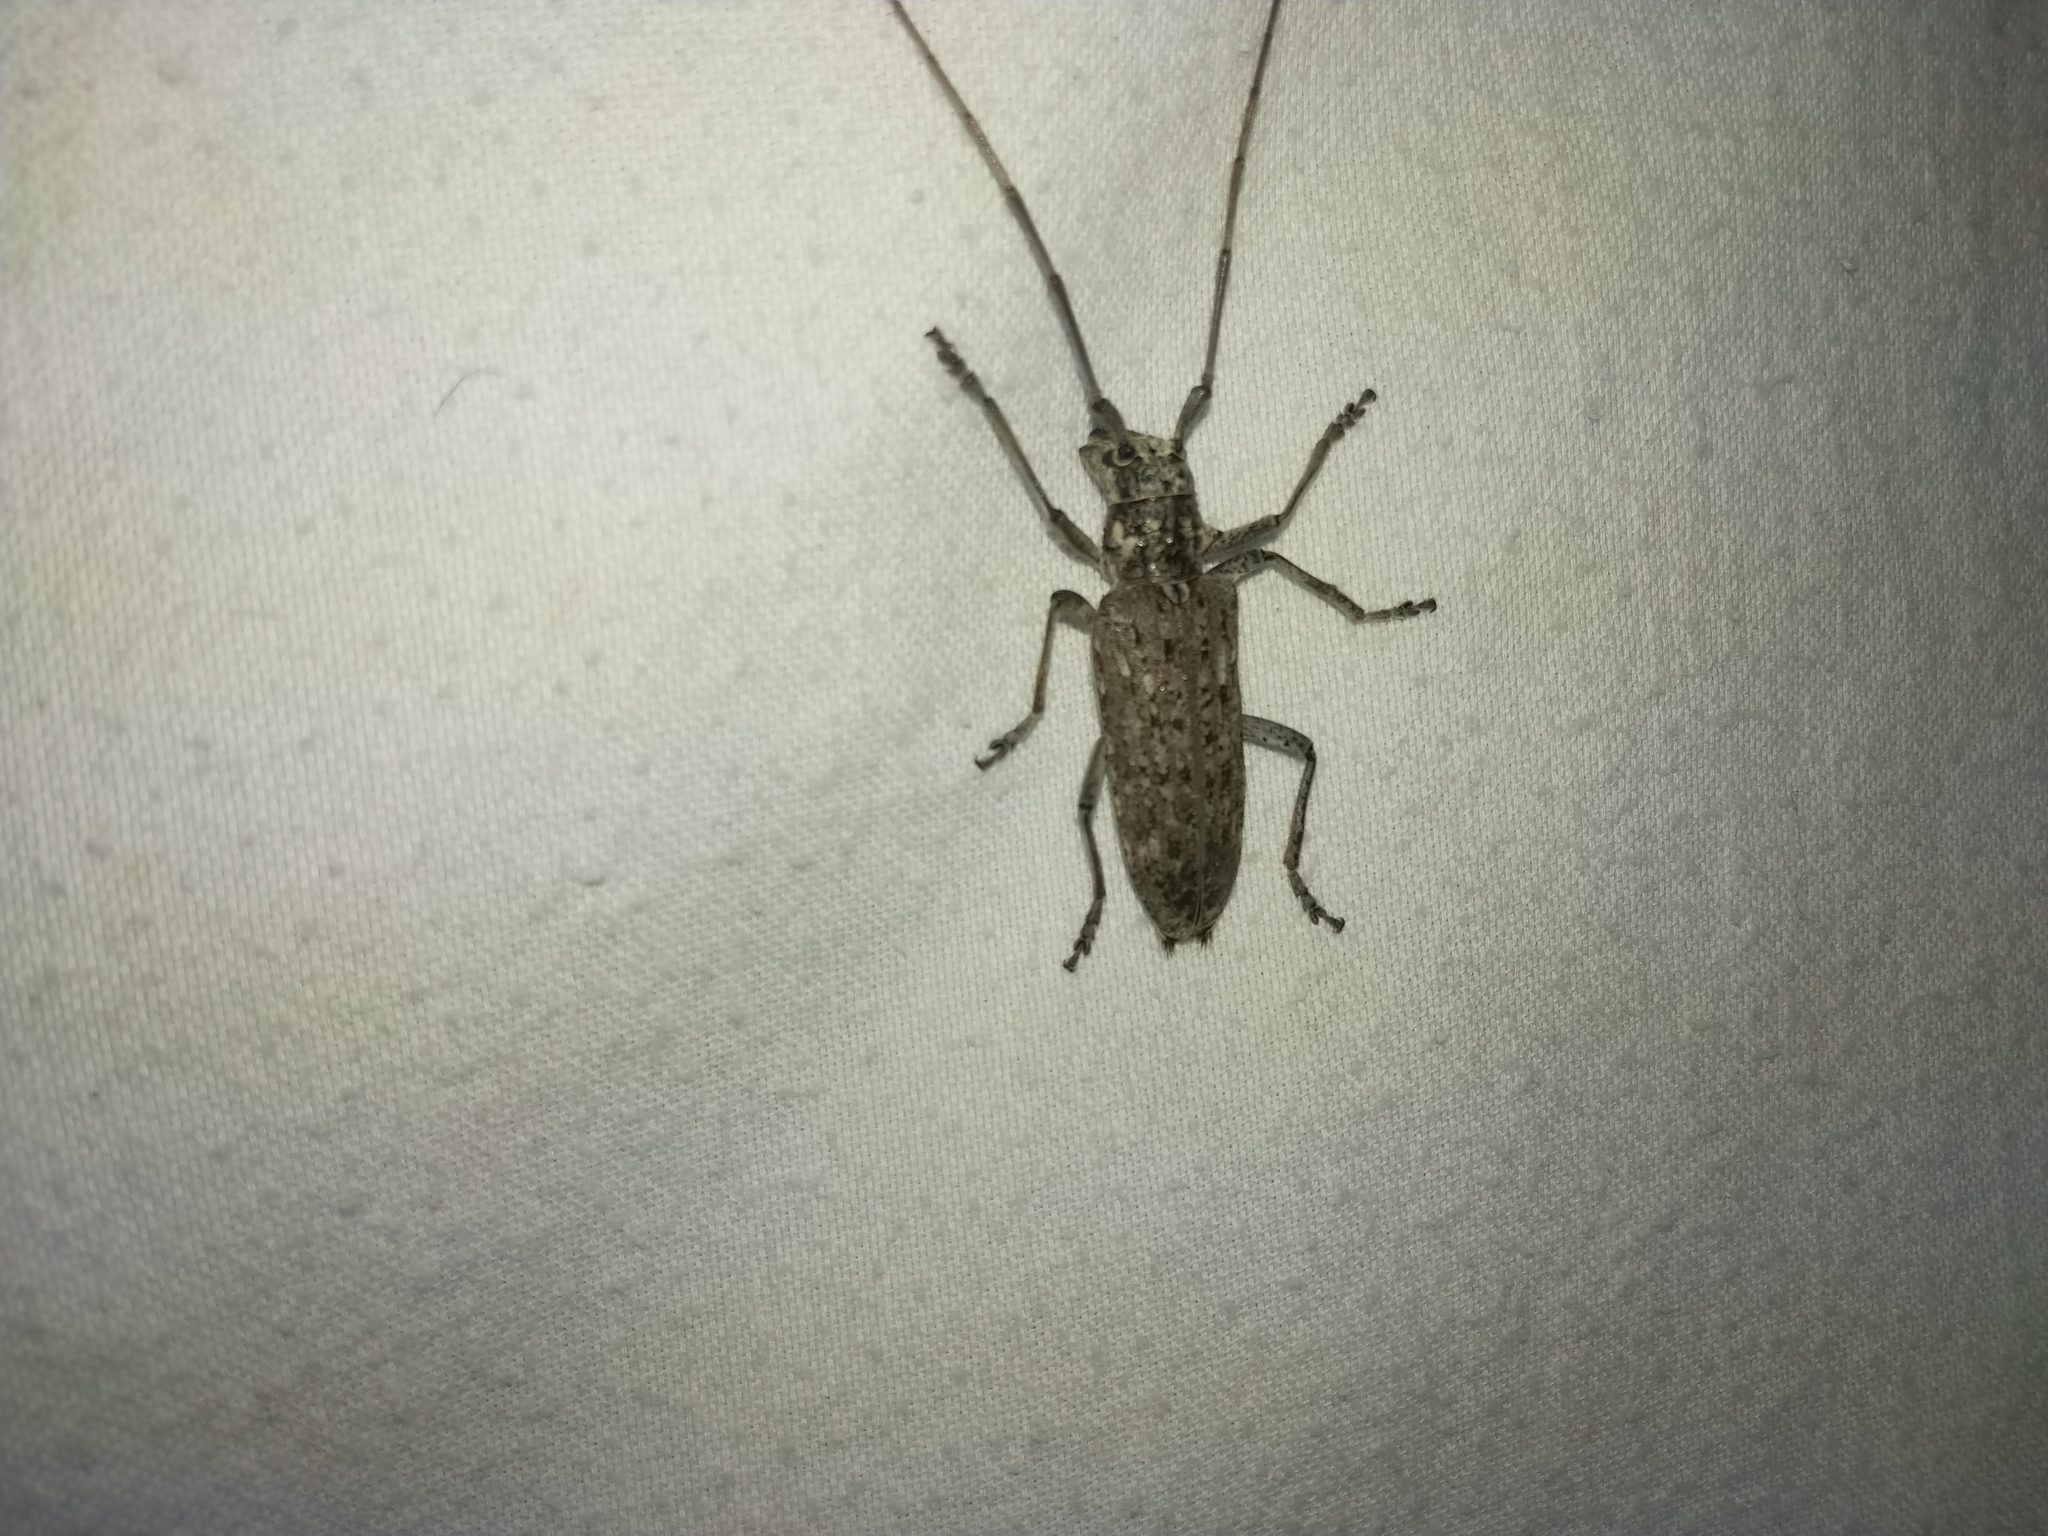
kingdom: Animalia
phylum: Arthropoda
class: Insecta
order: Coleoptera
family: Cerambycidae
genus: Monochamus
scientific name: Monochamus notatus
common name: Northeastern pine sawyer beetle
